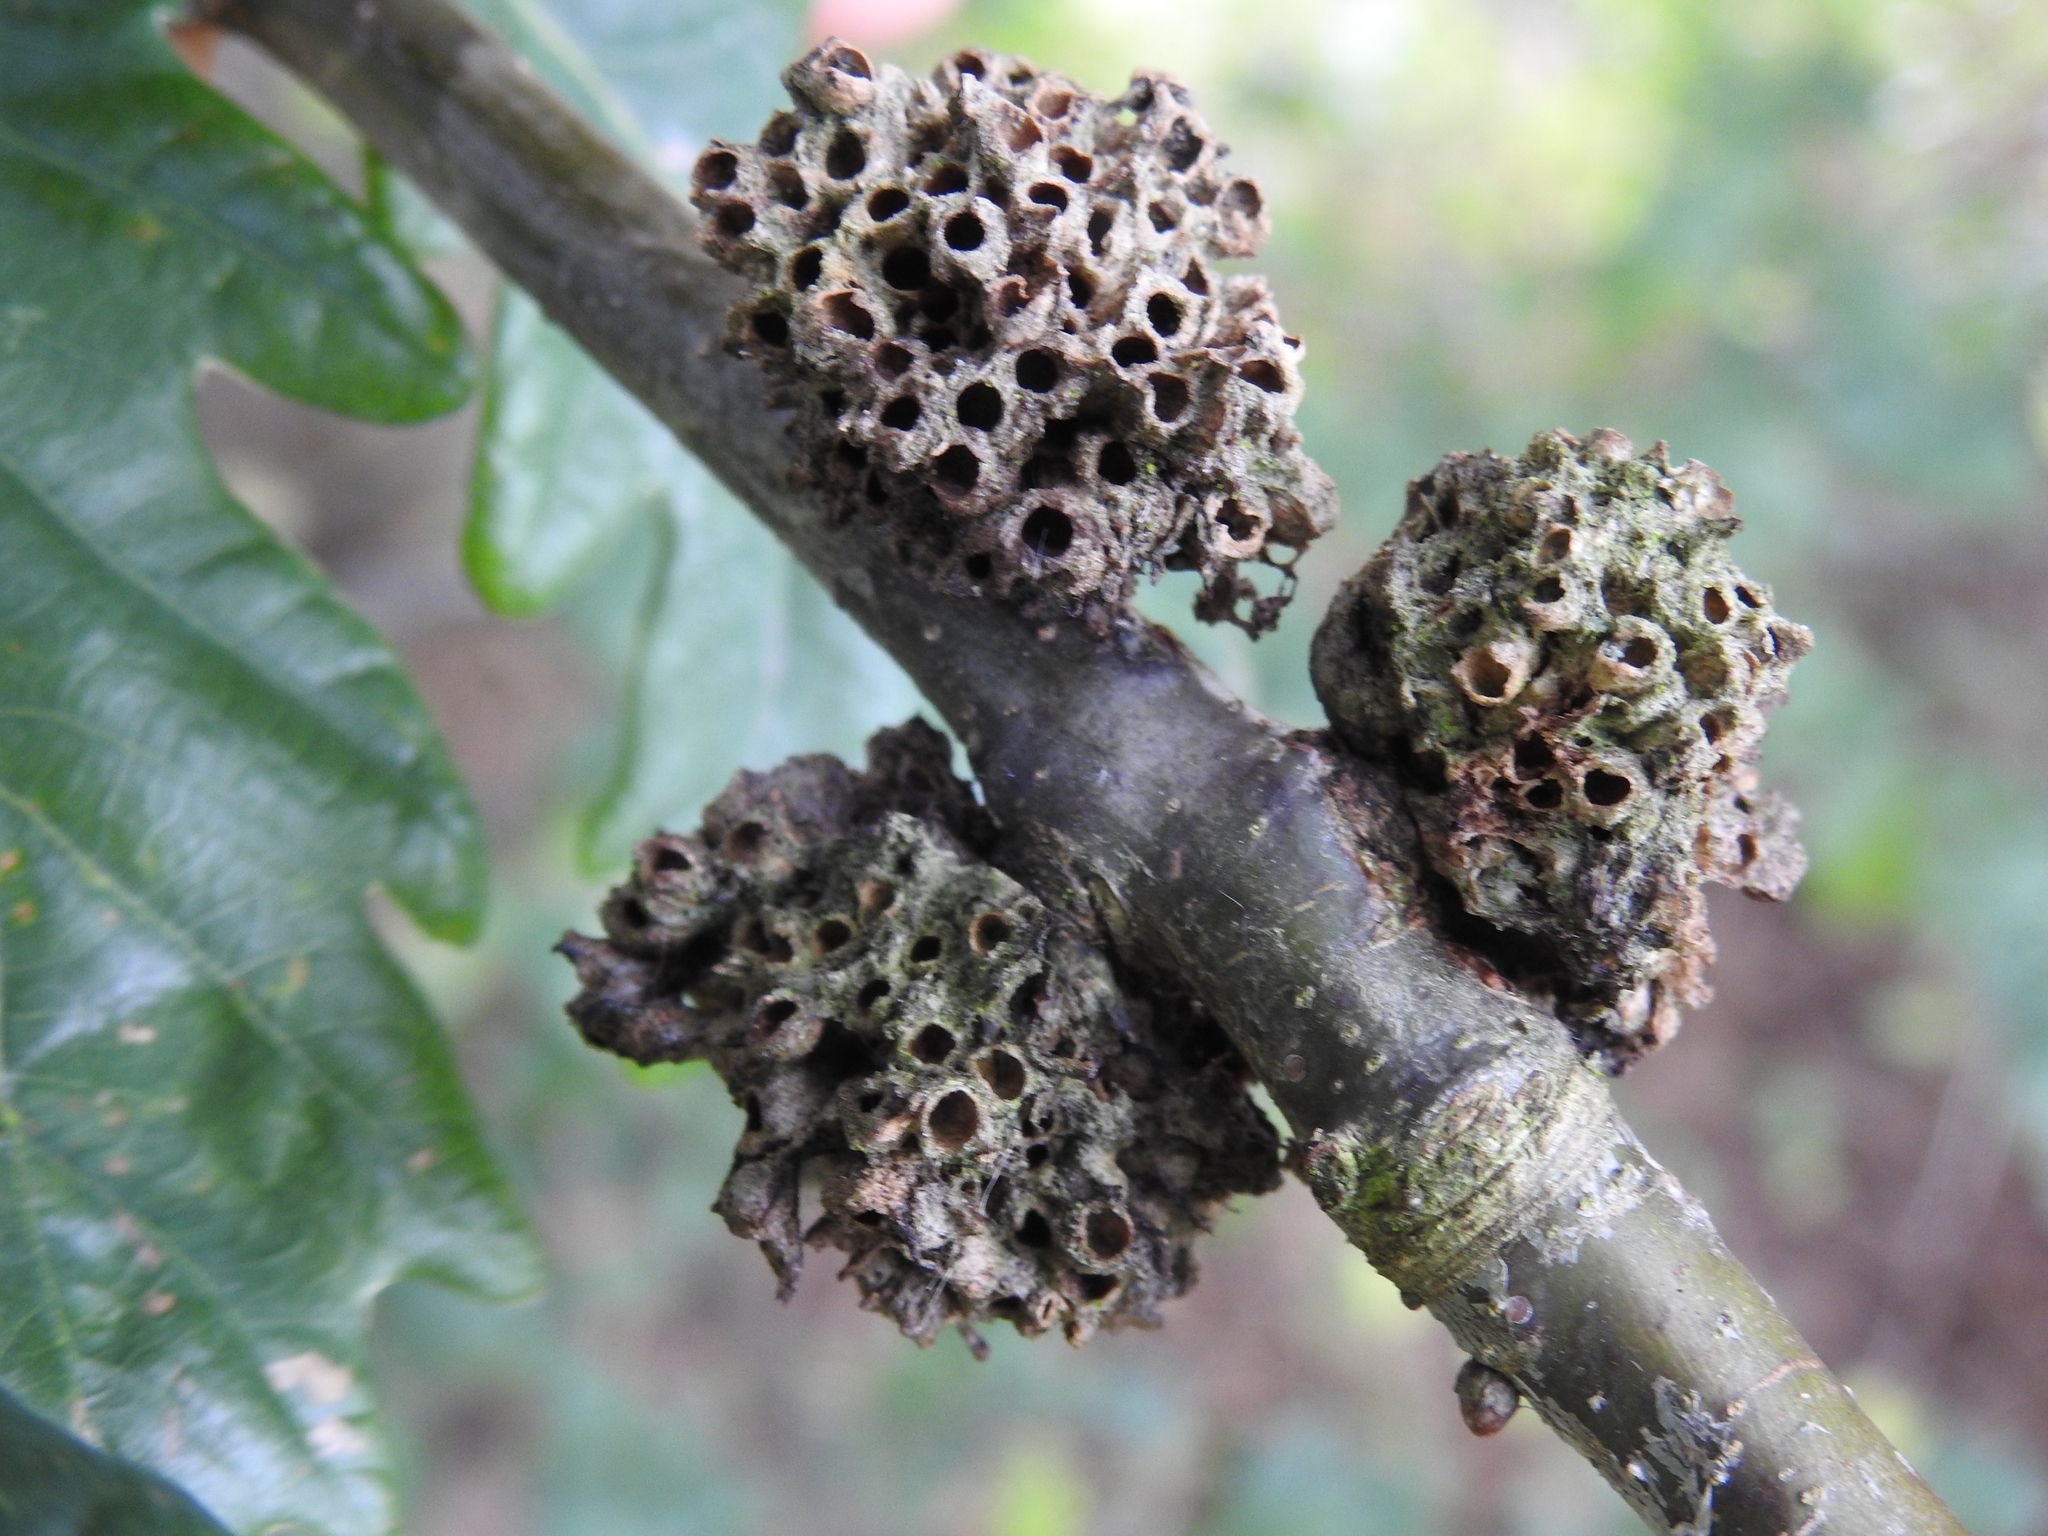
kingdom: Animalia
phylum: Arthropoda
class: Insecta
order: Hymenoptera
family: Cynipidae
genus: Biorhiza
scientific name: Biorhiza pallida
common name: Oak apple
